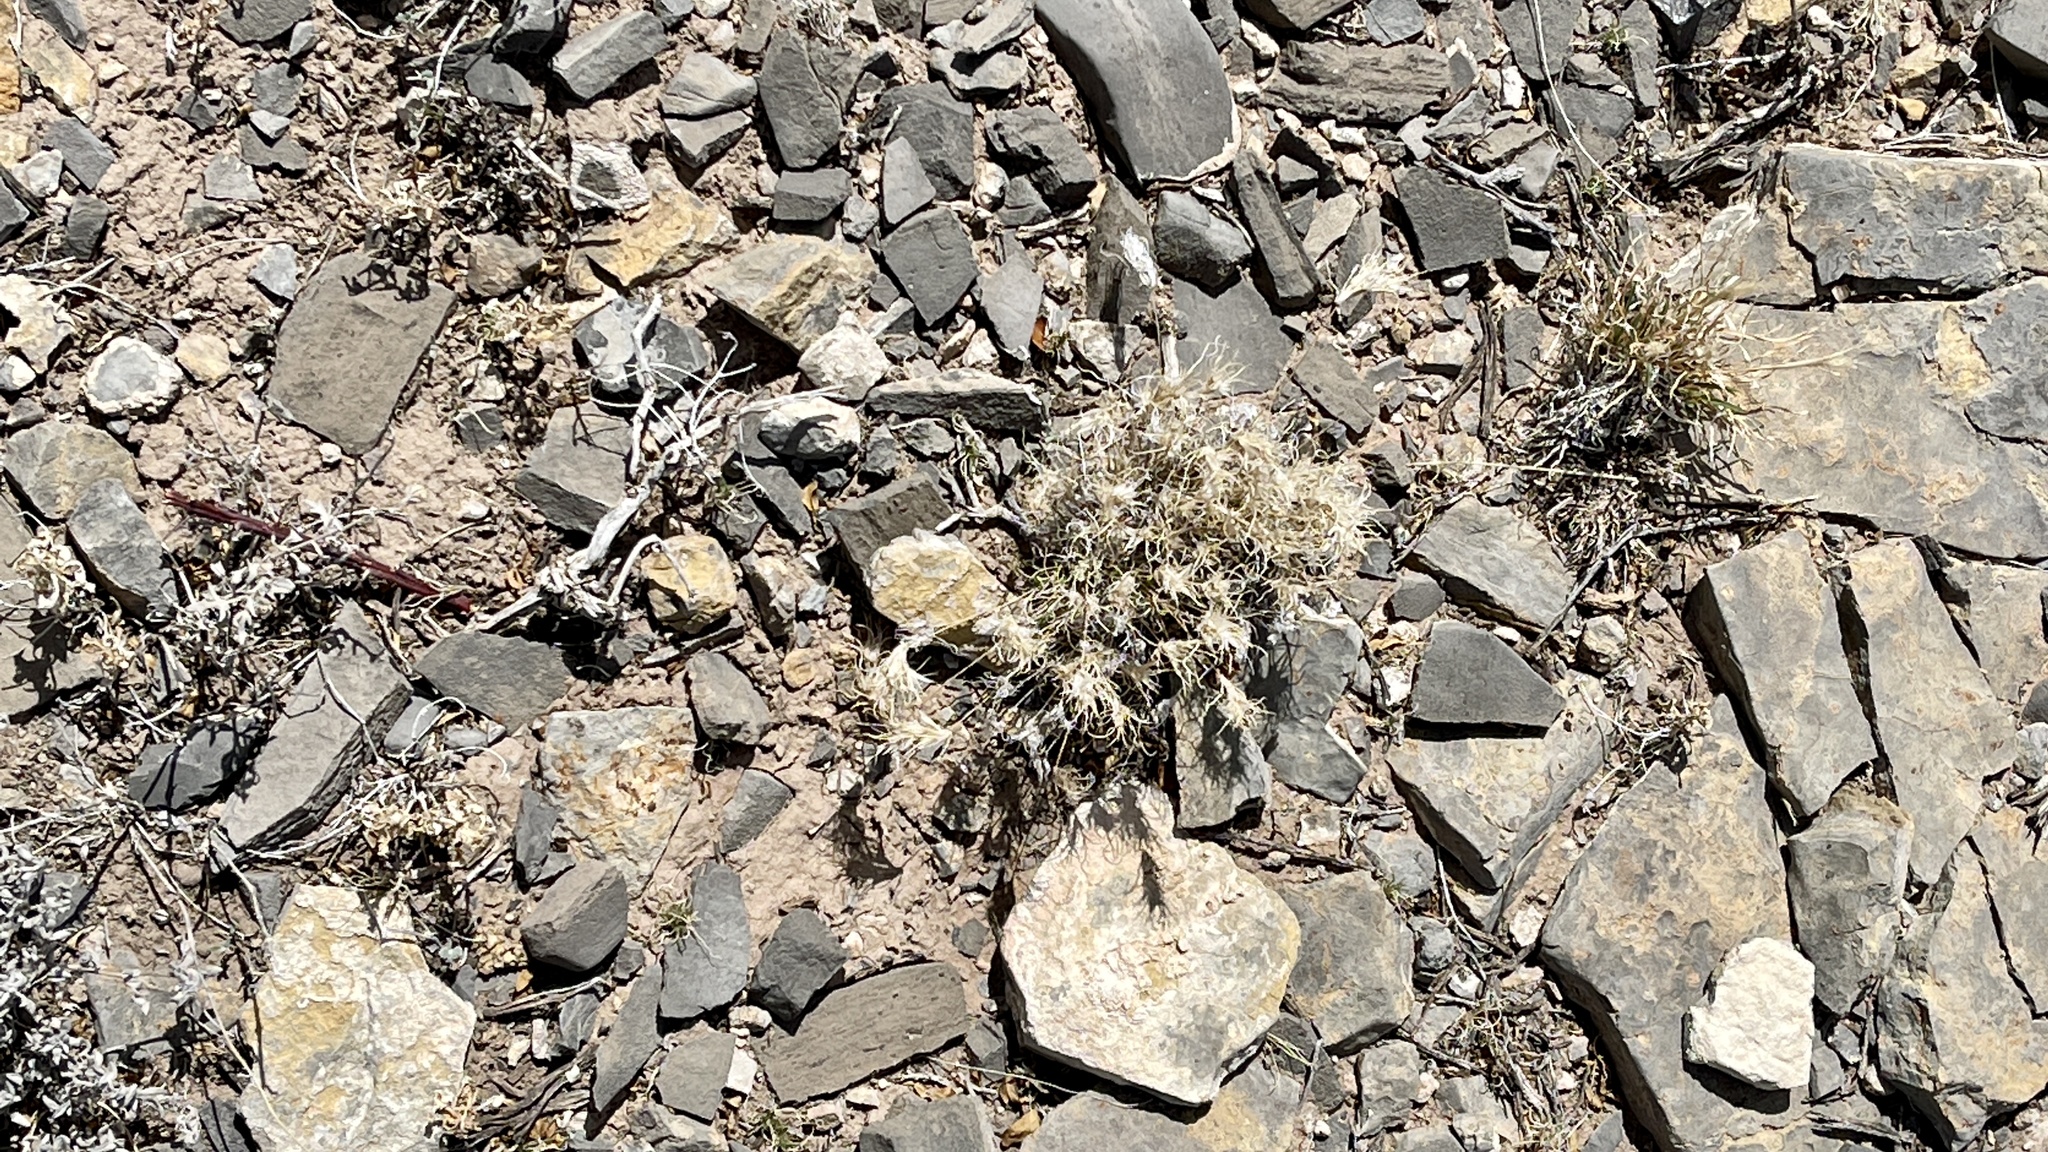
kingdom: Plantae
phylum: Tracheophyta
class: Liliopsida
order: Poales
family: Poaceae
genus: Dasyochloa
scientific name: Dasyochloa pulchella
